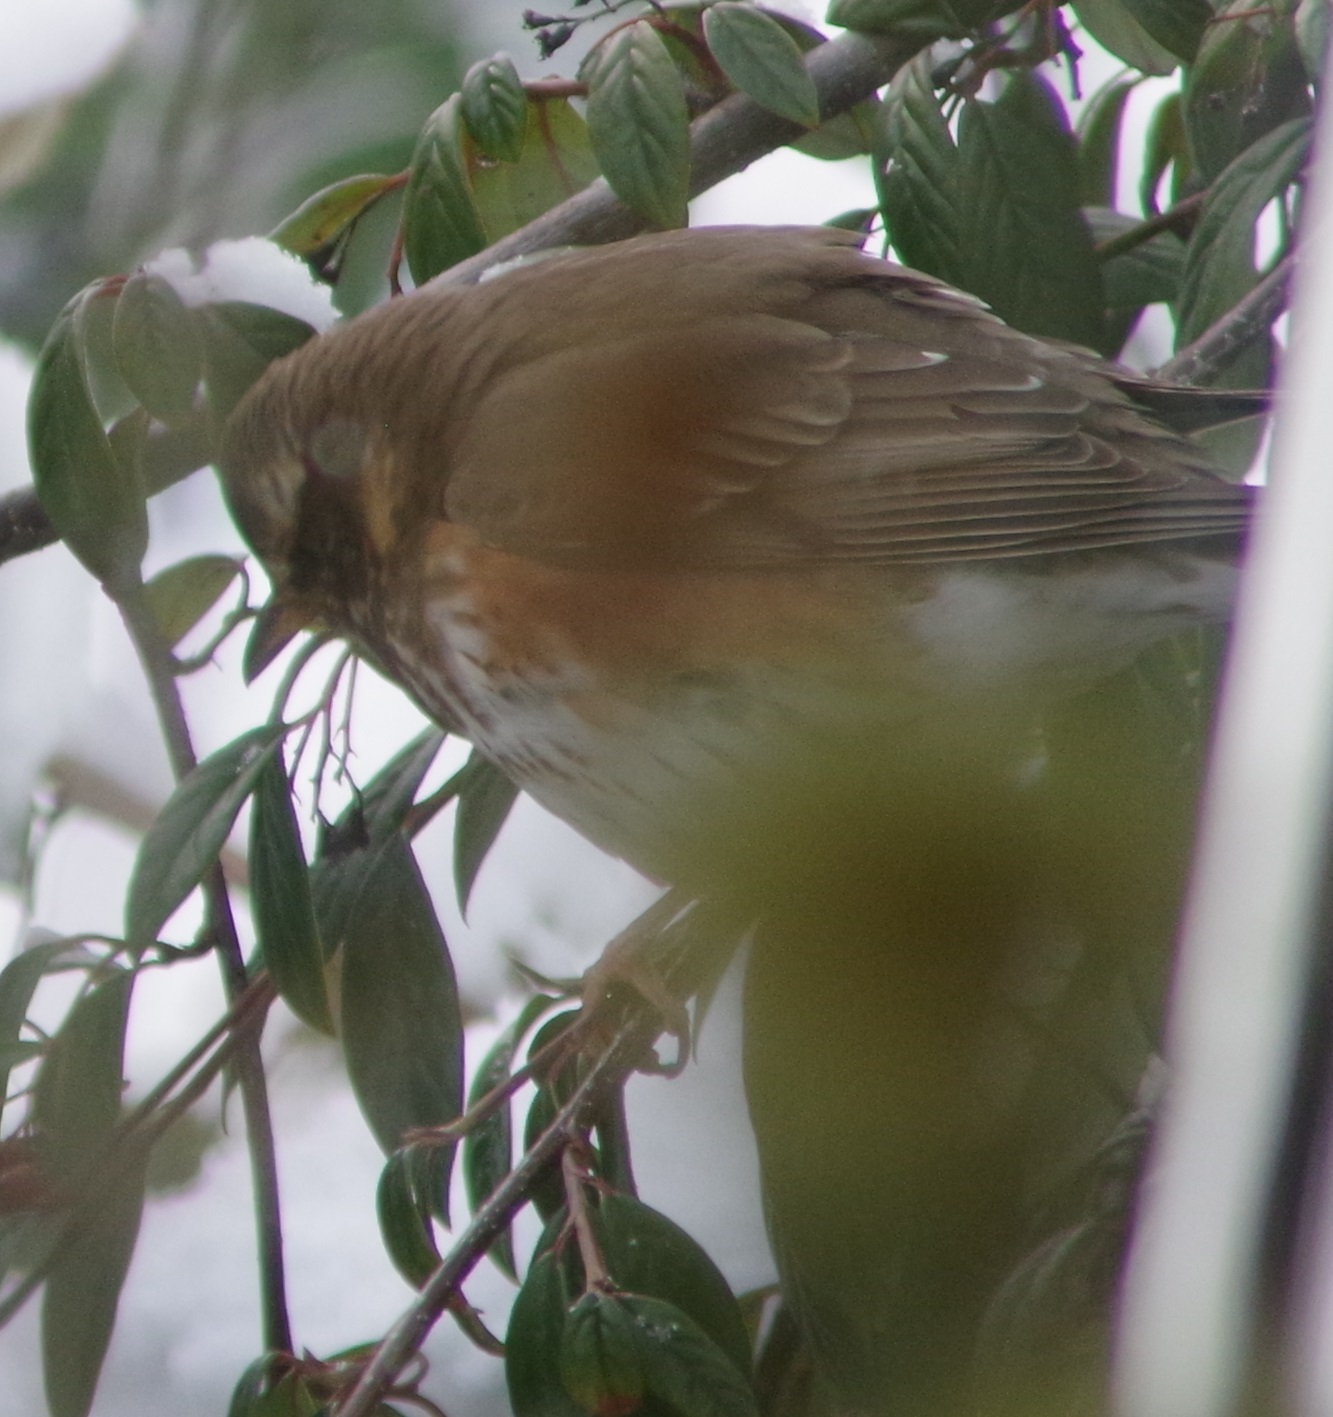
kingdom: Animalia
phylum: Chordata
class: Aves
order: Passeriformes
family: Turdidae
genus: Turdus
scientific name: Turdus iliacus
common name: Redwing
